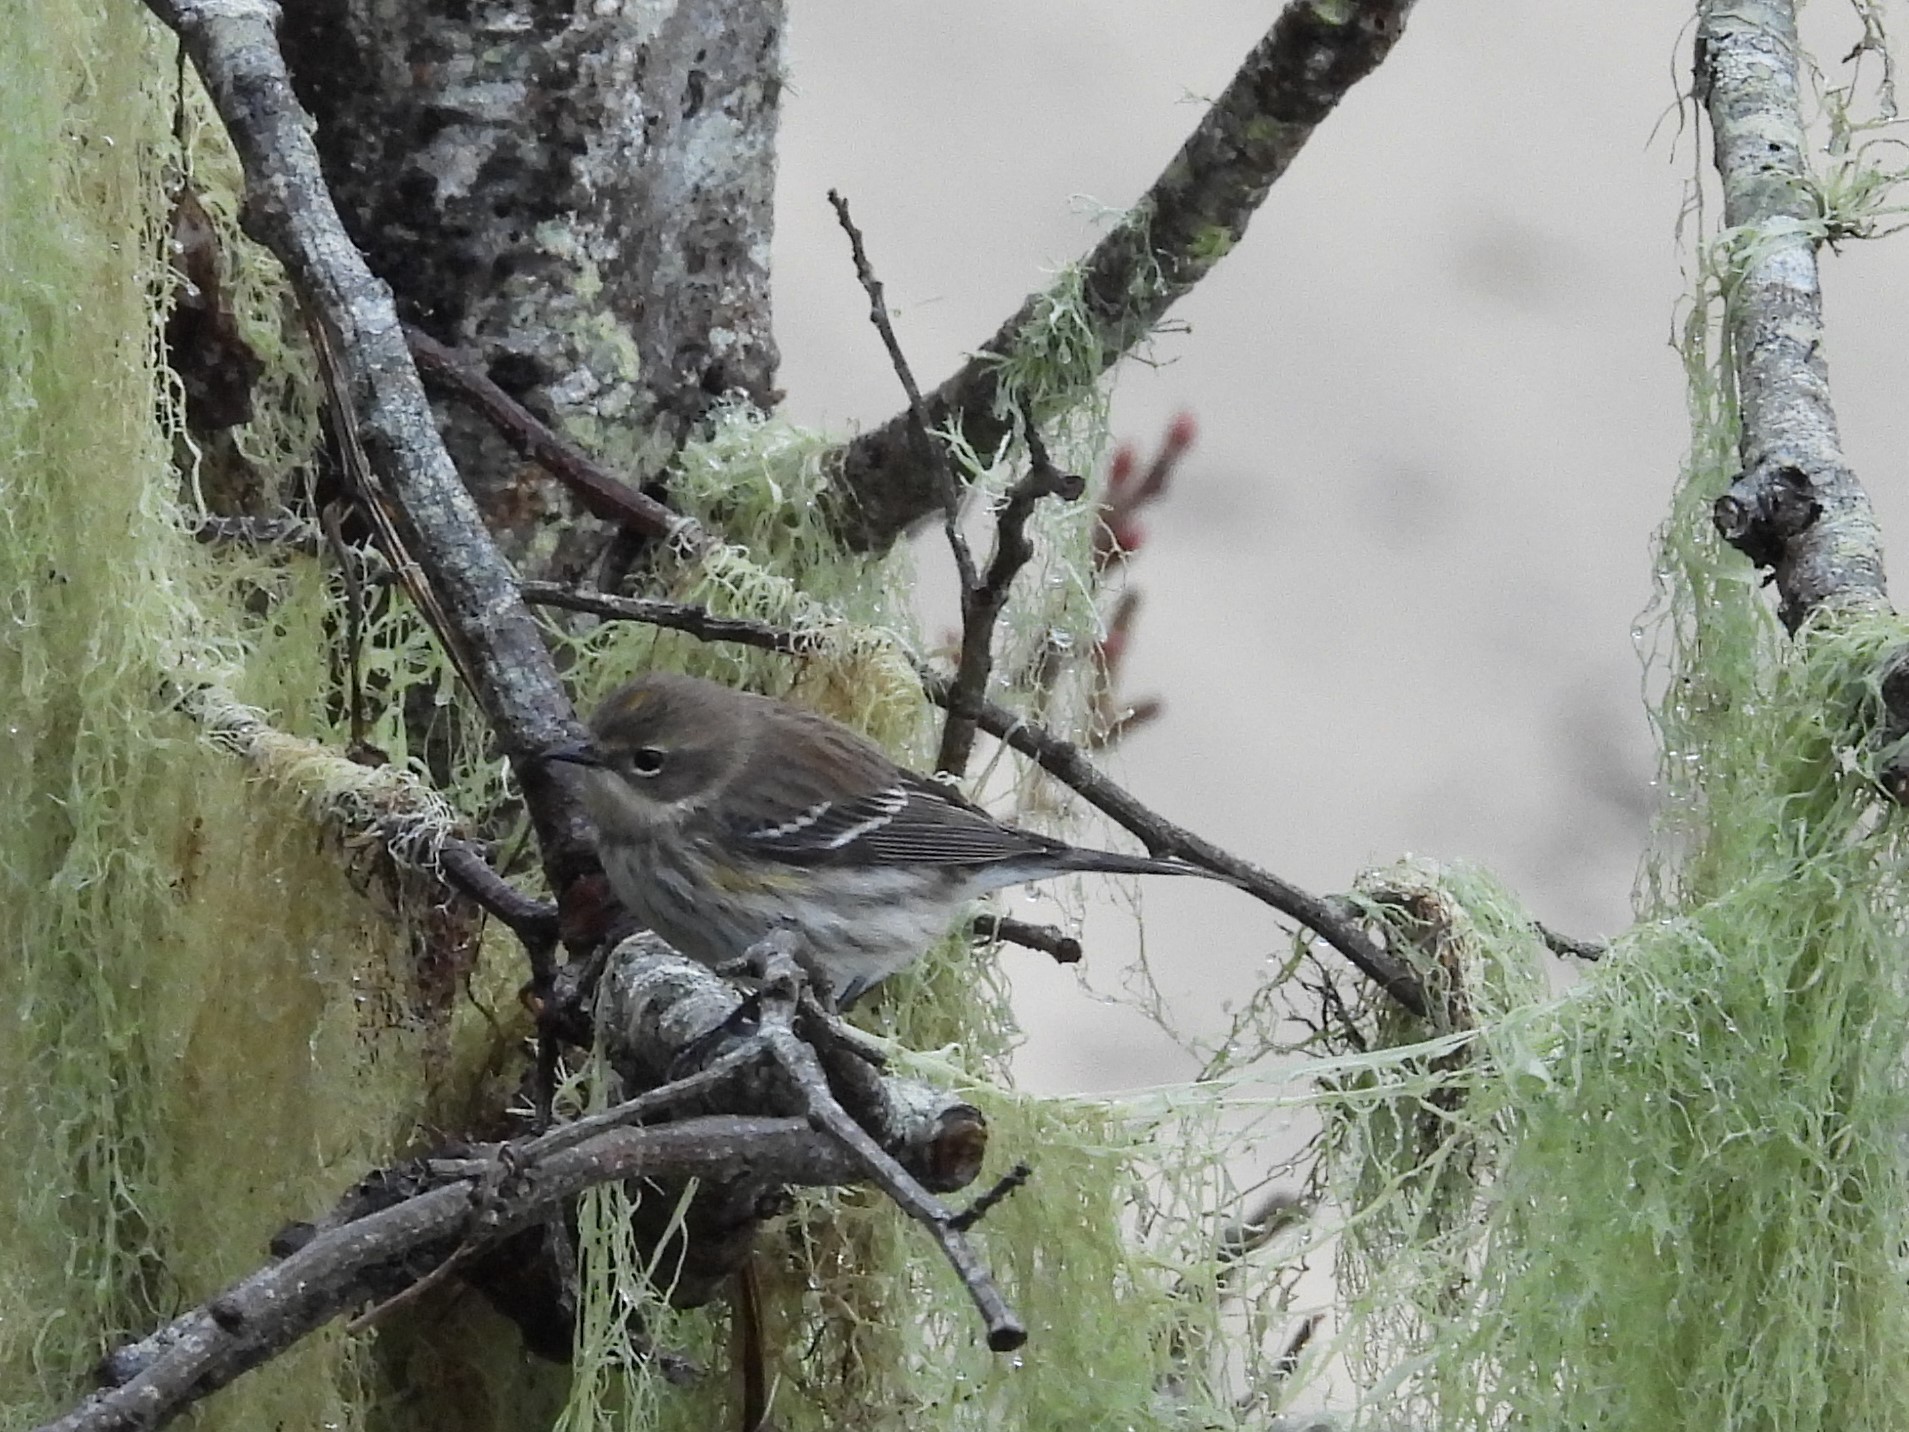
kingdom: Animalia
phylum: Chordata
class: Aves
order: Passeriformes
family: Parulidae
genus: Setophaga
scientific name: Setophaga coronata
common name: Myrtle warbler
